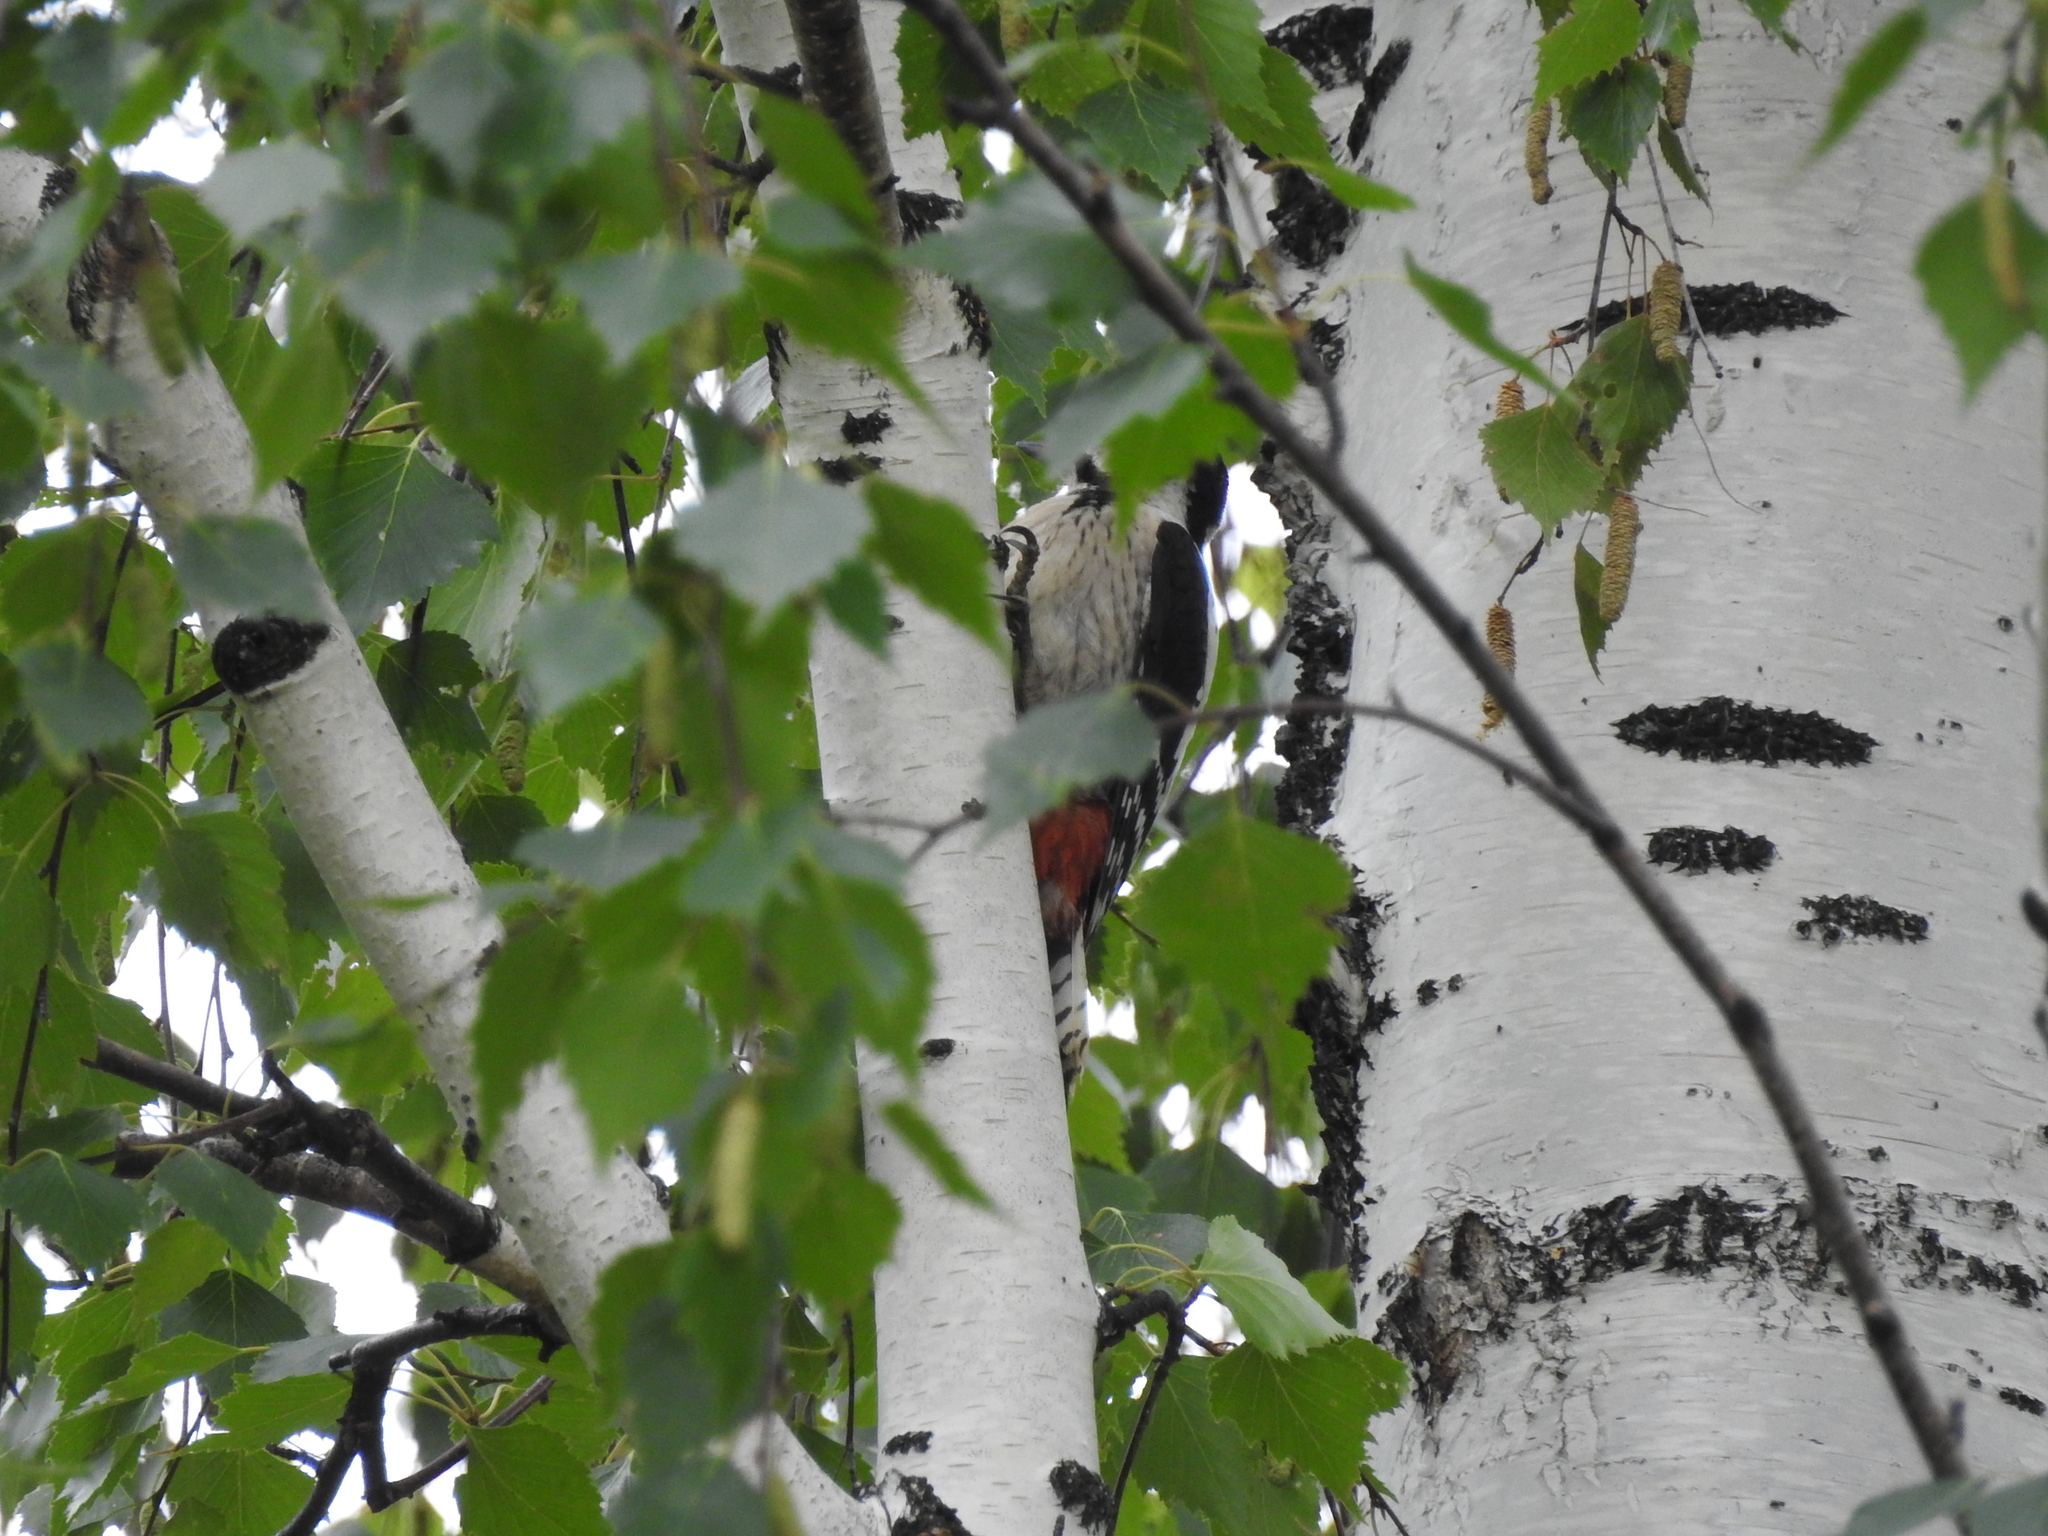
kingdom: Animalia
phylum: Chordata
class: Aves
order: Piciformes
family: Picidae
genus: Dendrocopos
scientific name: Dendrocopos major
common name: Great spotted woodpecker
